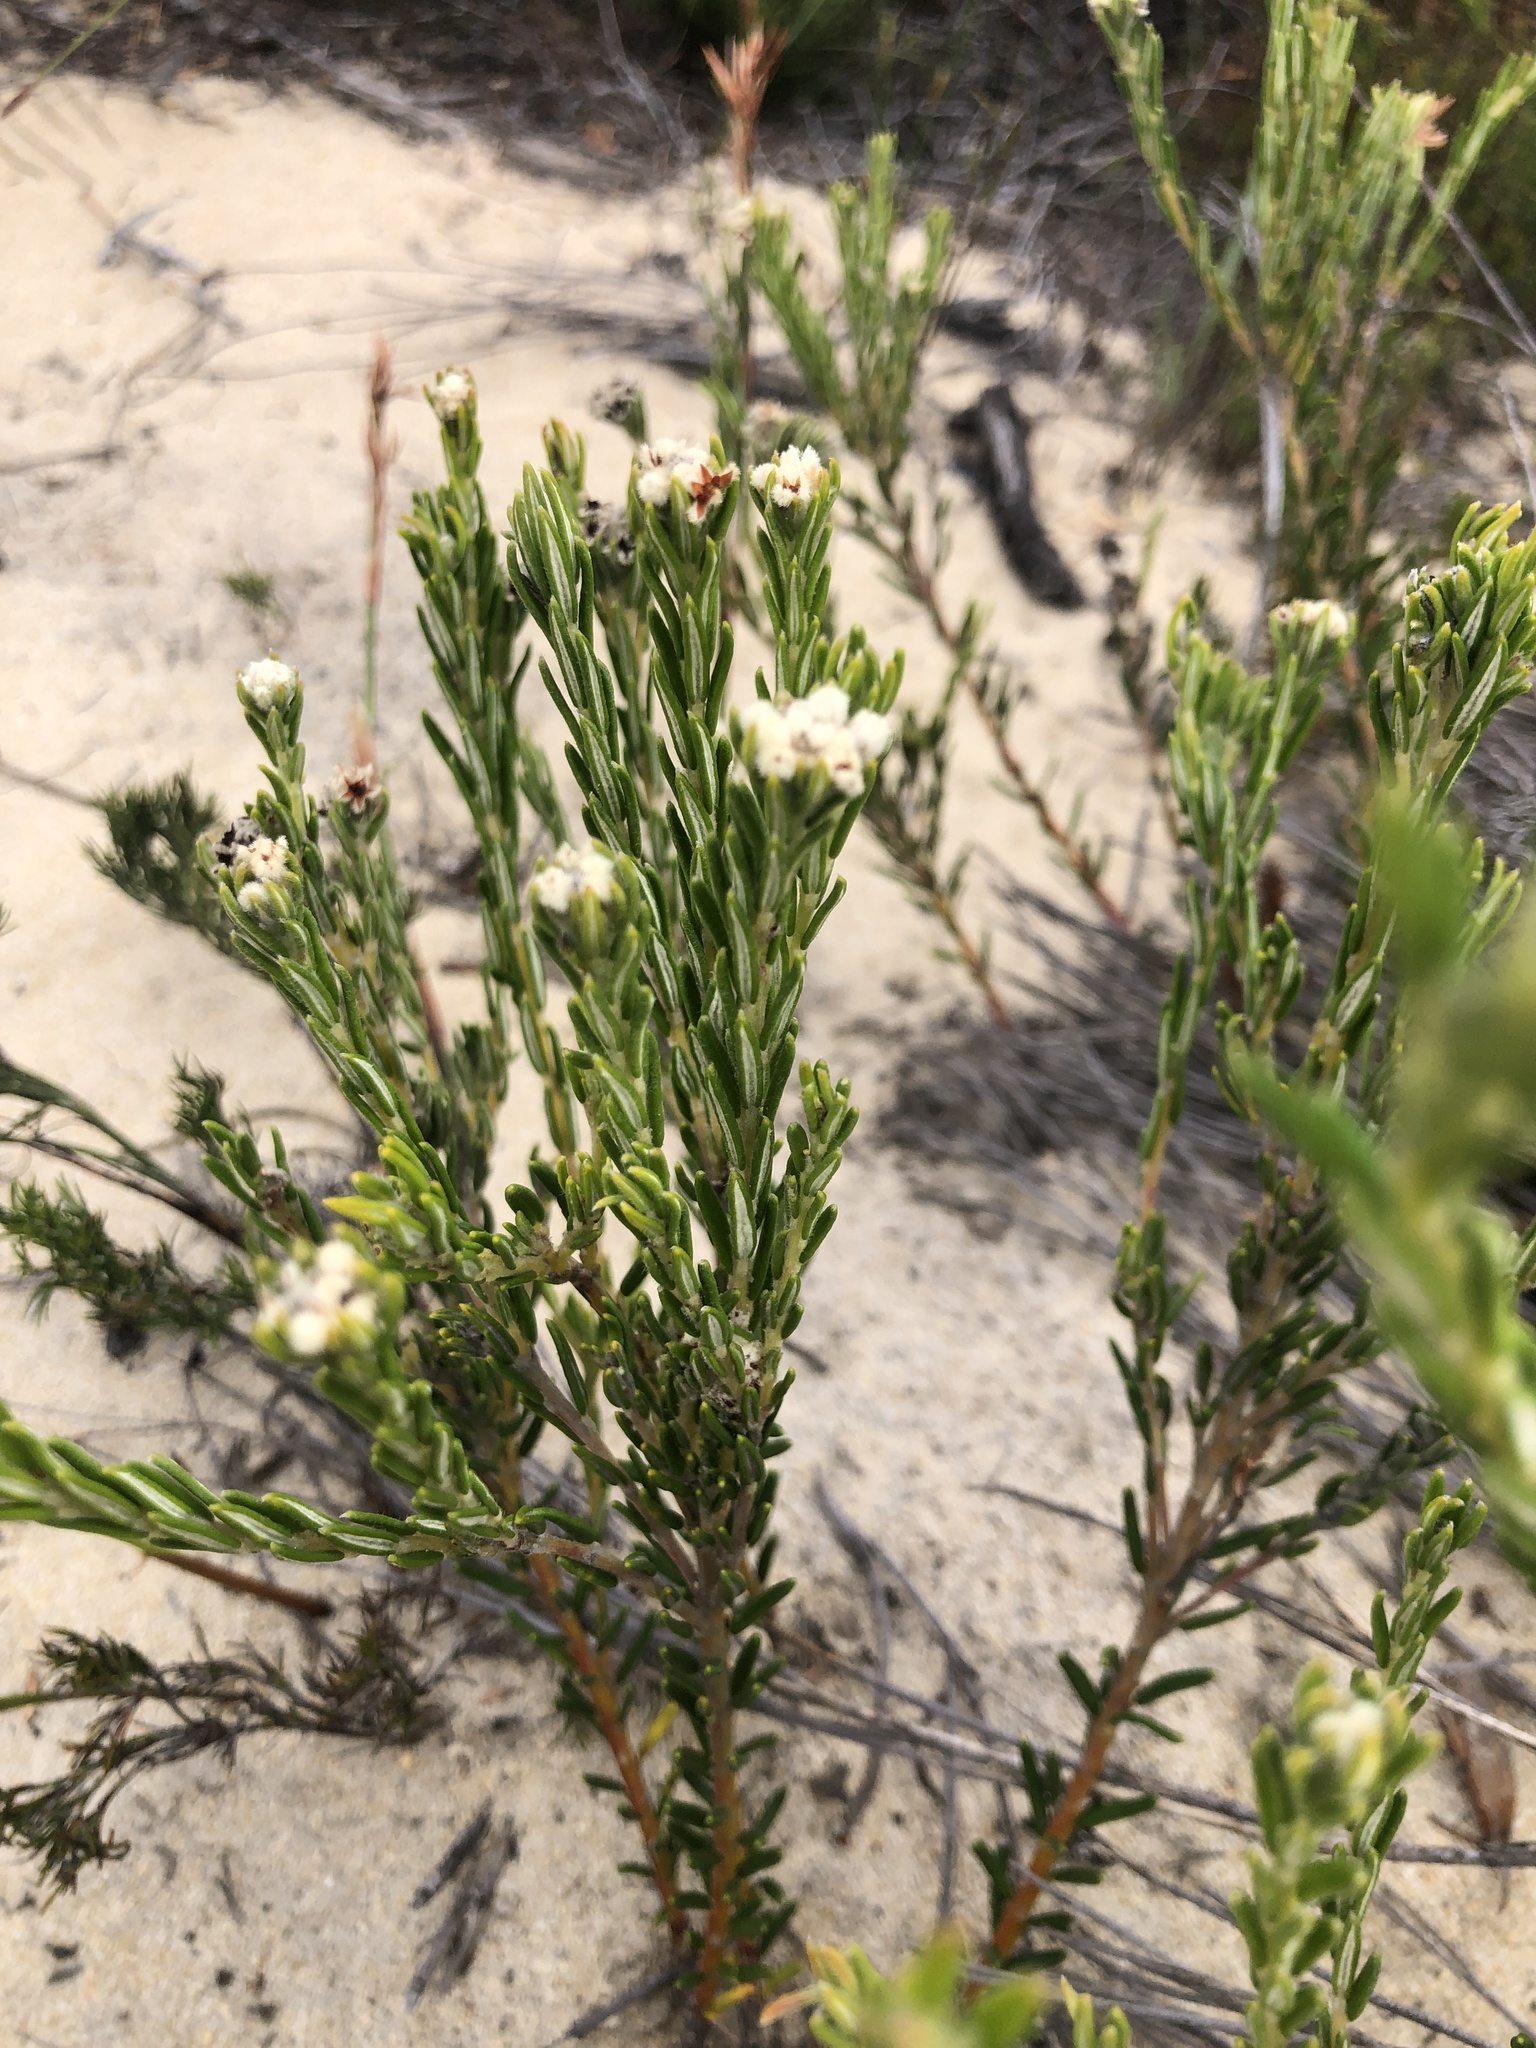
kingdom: Plantae
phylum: Tracheophyta
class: Magnoliopsida
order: Rosales
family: Rhamnaceae
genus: Phylica
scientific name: Phylica imberbis
